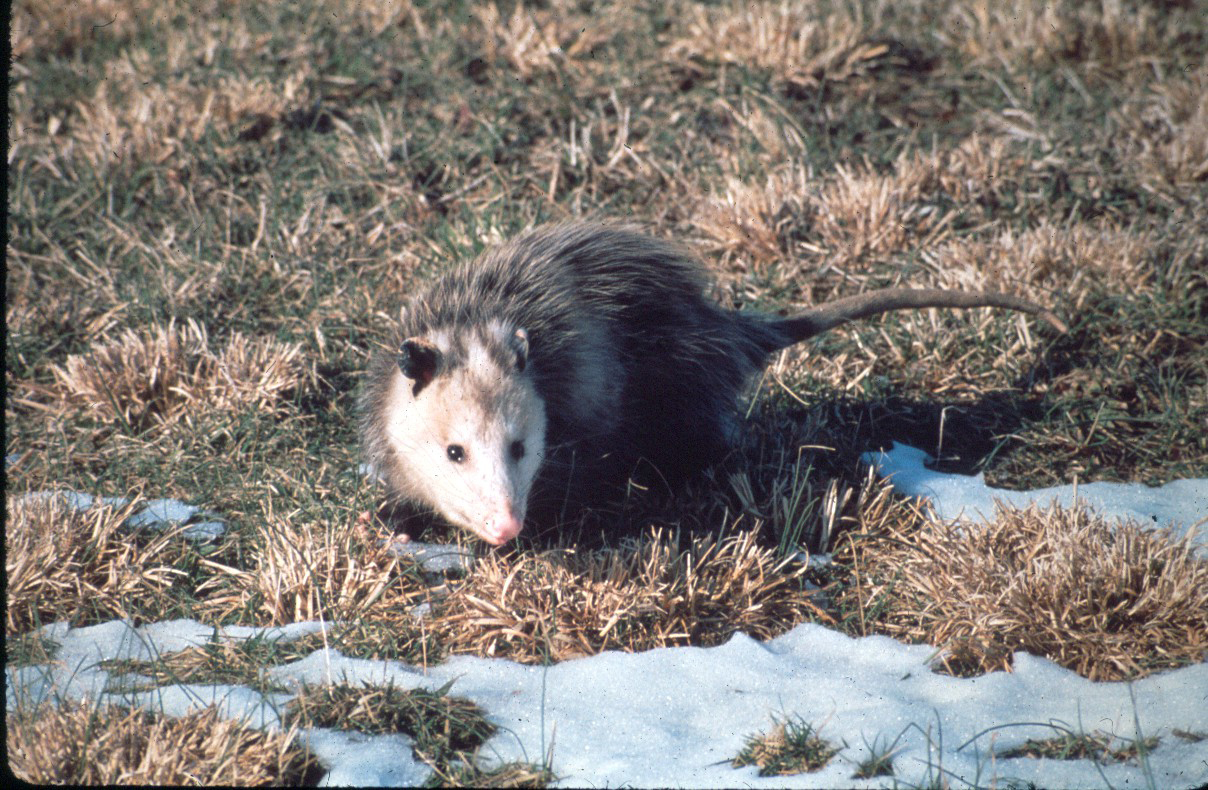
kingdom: Animalia
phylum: Chordata
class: Mammalia
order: Didelphimorphia
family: Didelphidae
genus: Didelphis
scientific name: Didelphis virginiana
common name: Virginia opossum
